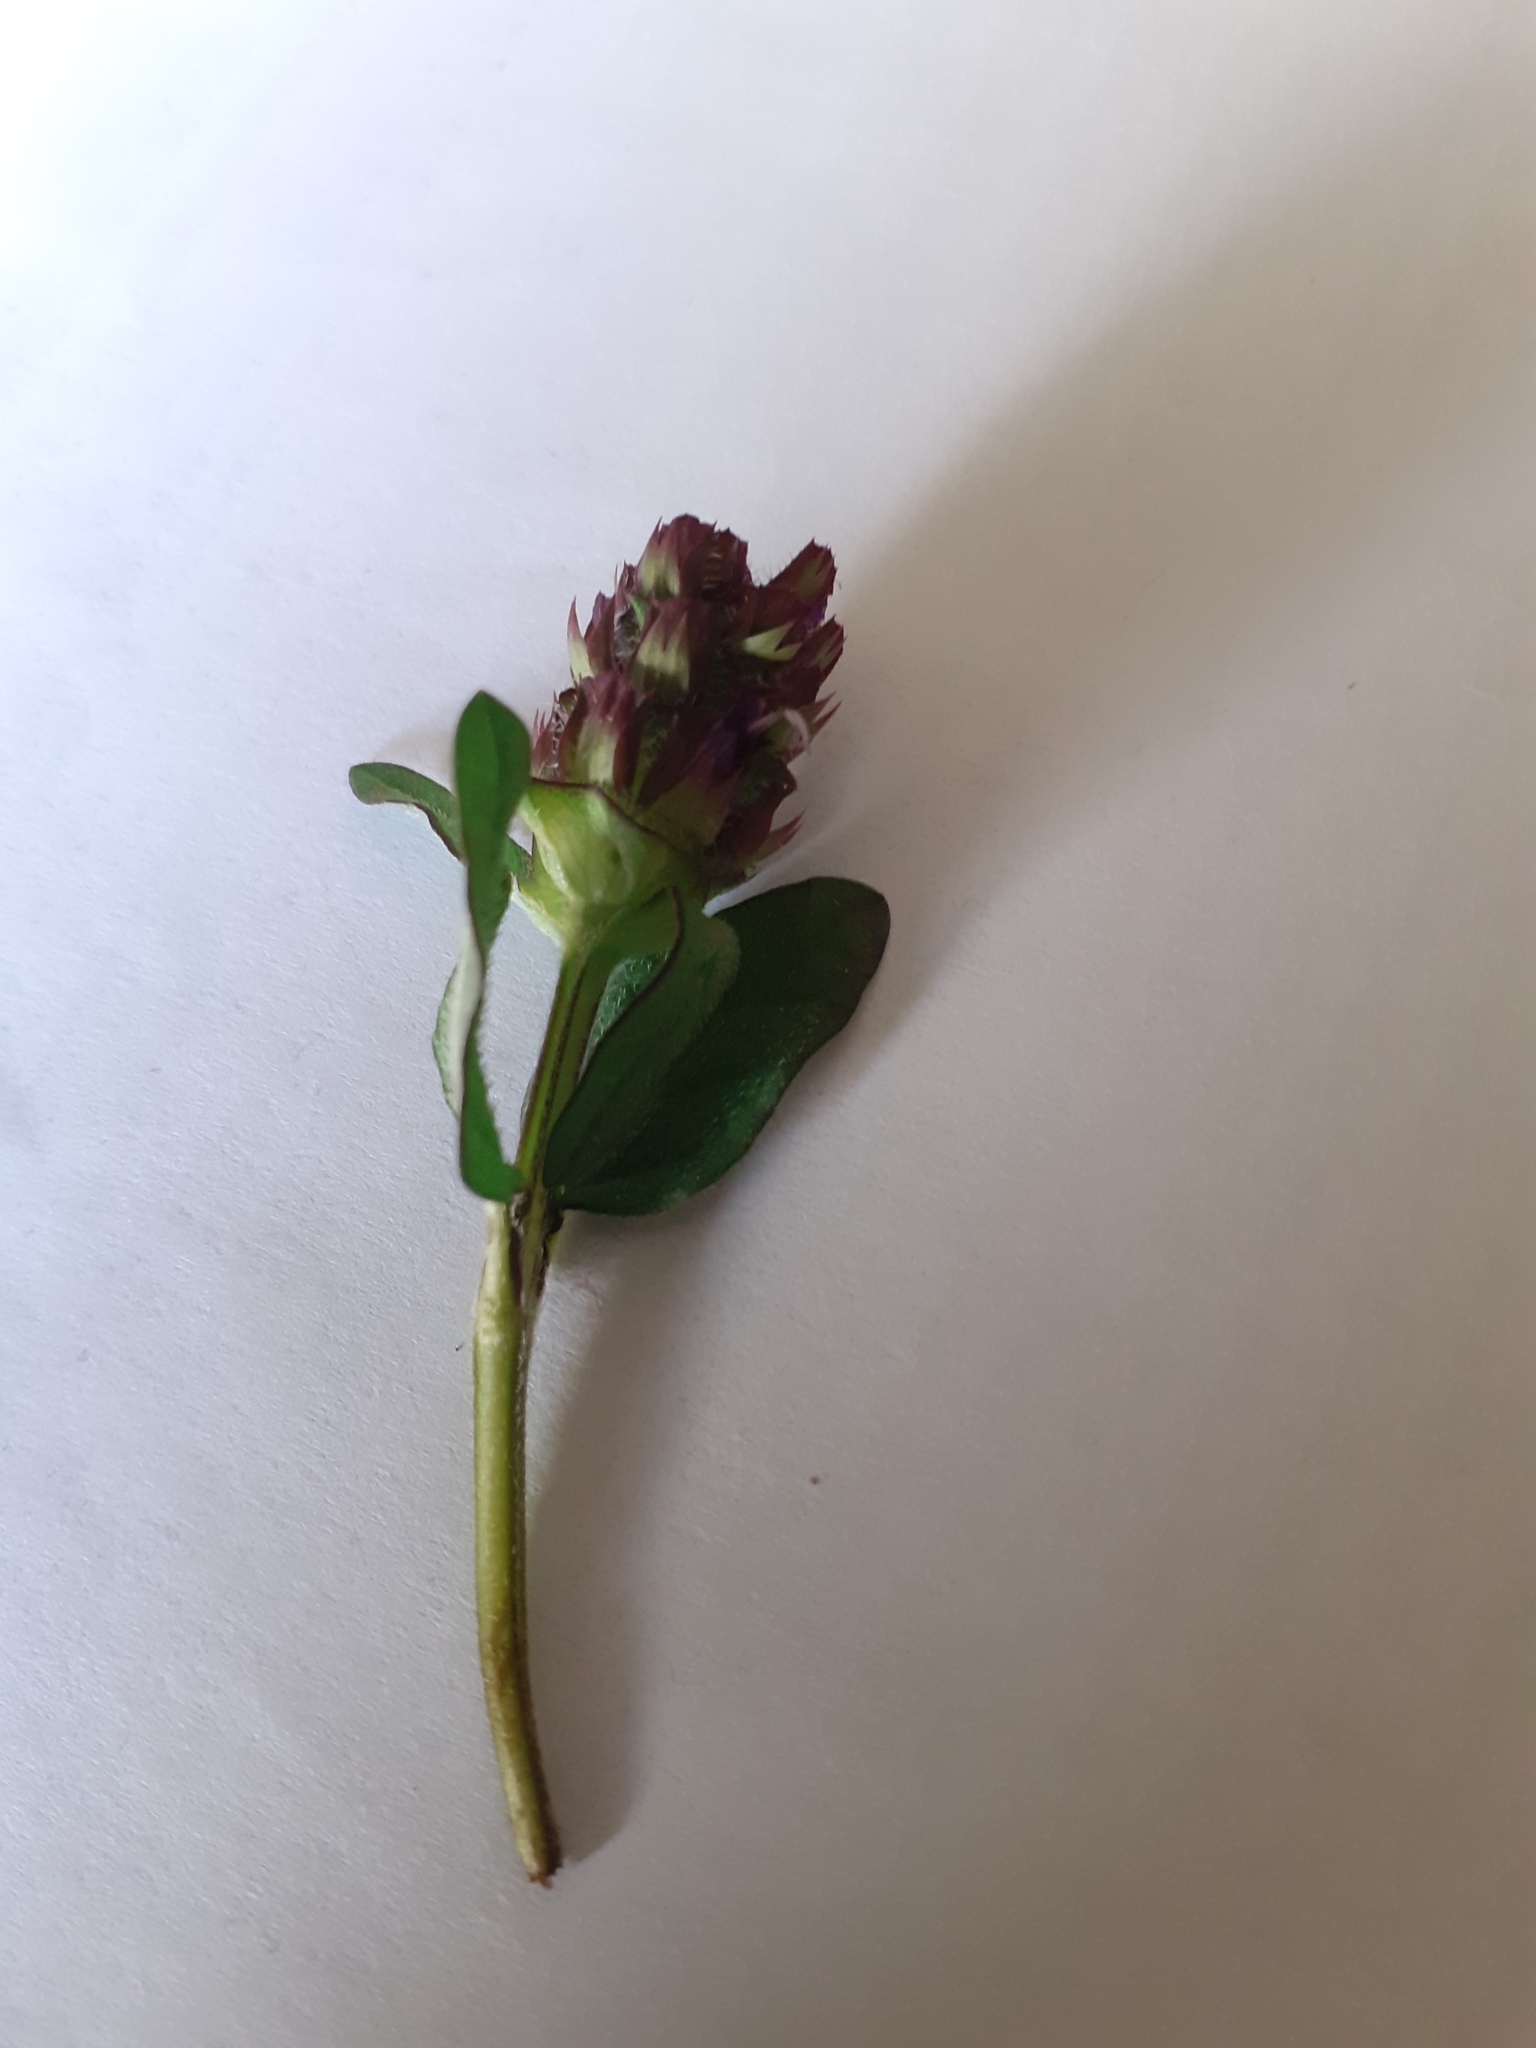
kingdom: Plantae
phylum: Tracheophyta
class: Magnoliopsida
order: Lamiales
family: Lamiaceae
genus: Prunella
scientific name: Prunella vulgaris
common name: Heal-all
